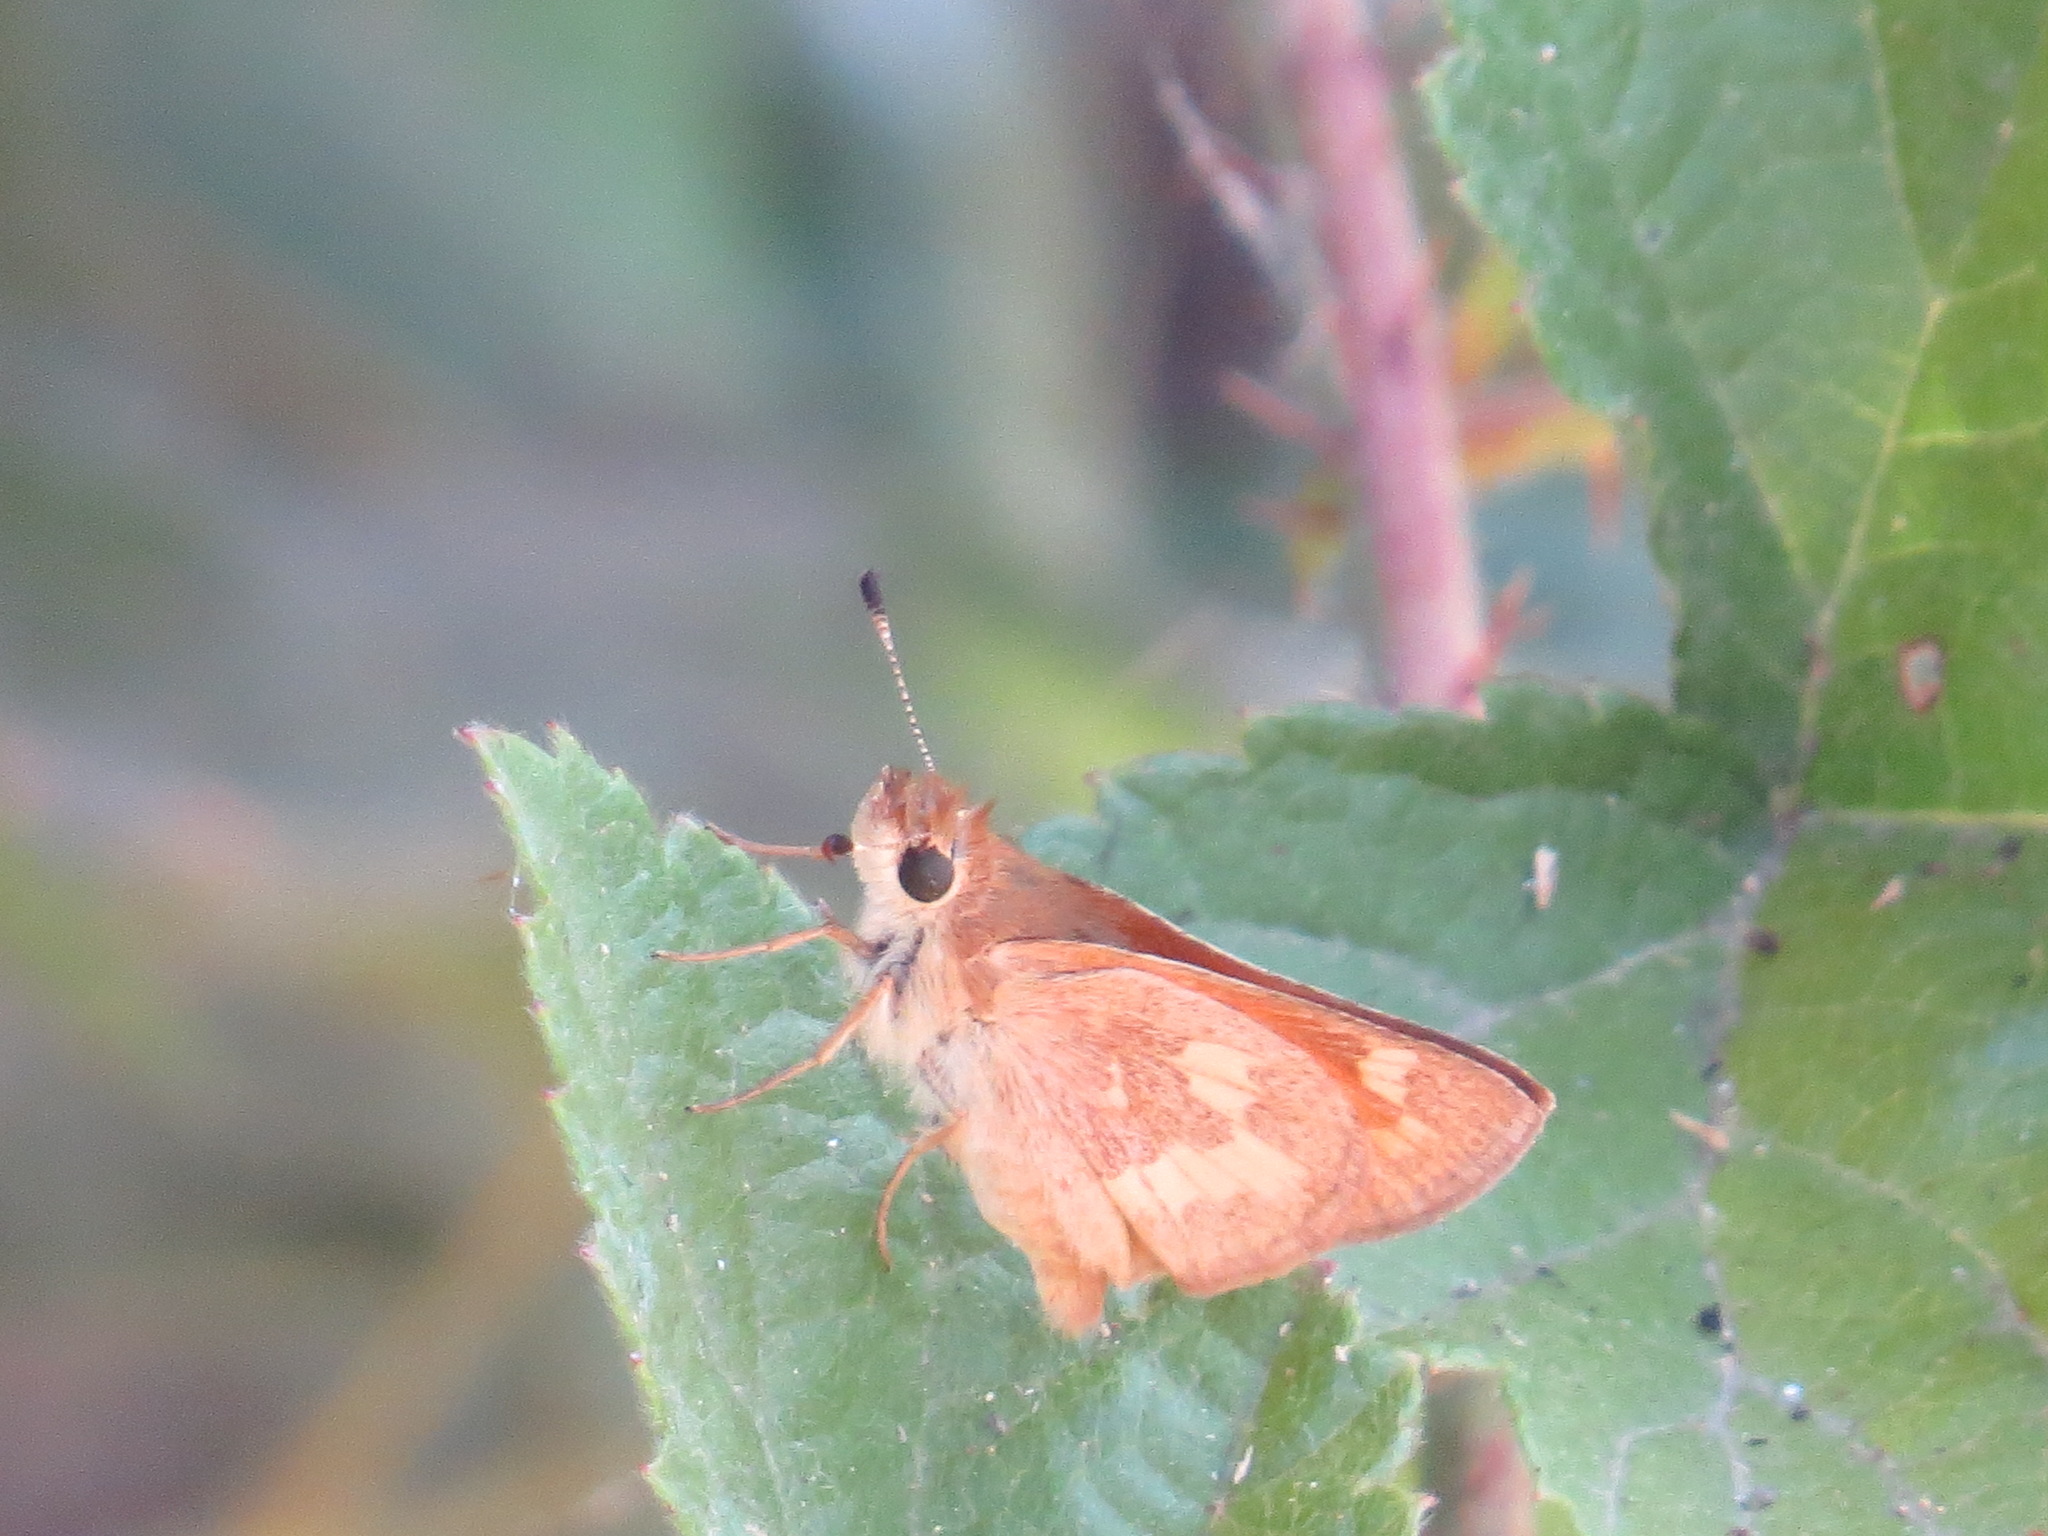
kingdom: Animalia
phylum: Arthropoda
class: Insecta
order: Lepidoptera
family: Hesperiidae
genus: Ochlodes
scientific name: Ochlodes sylvanoides
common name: Woodland skipper
